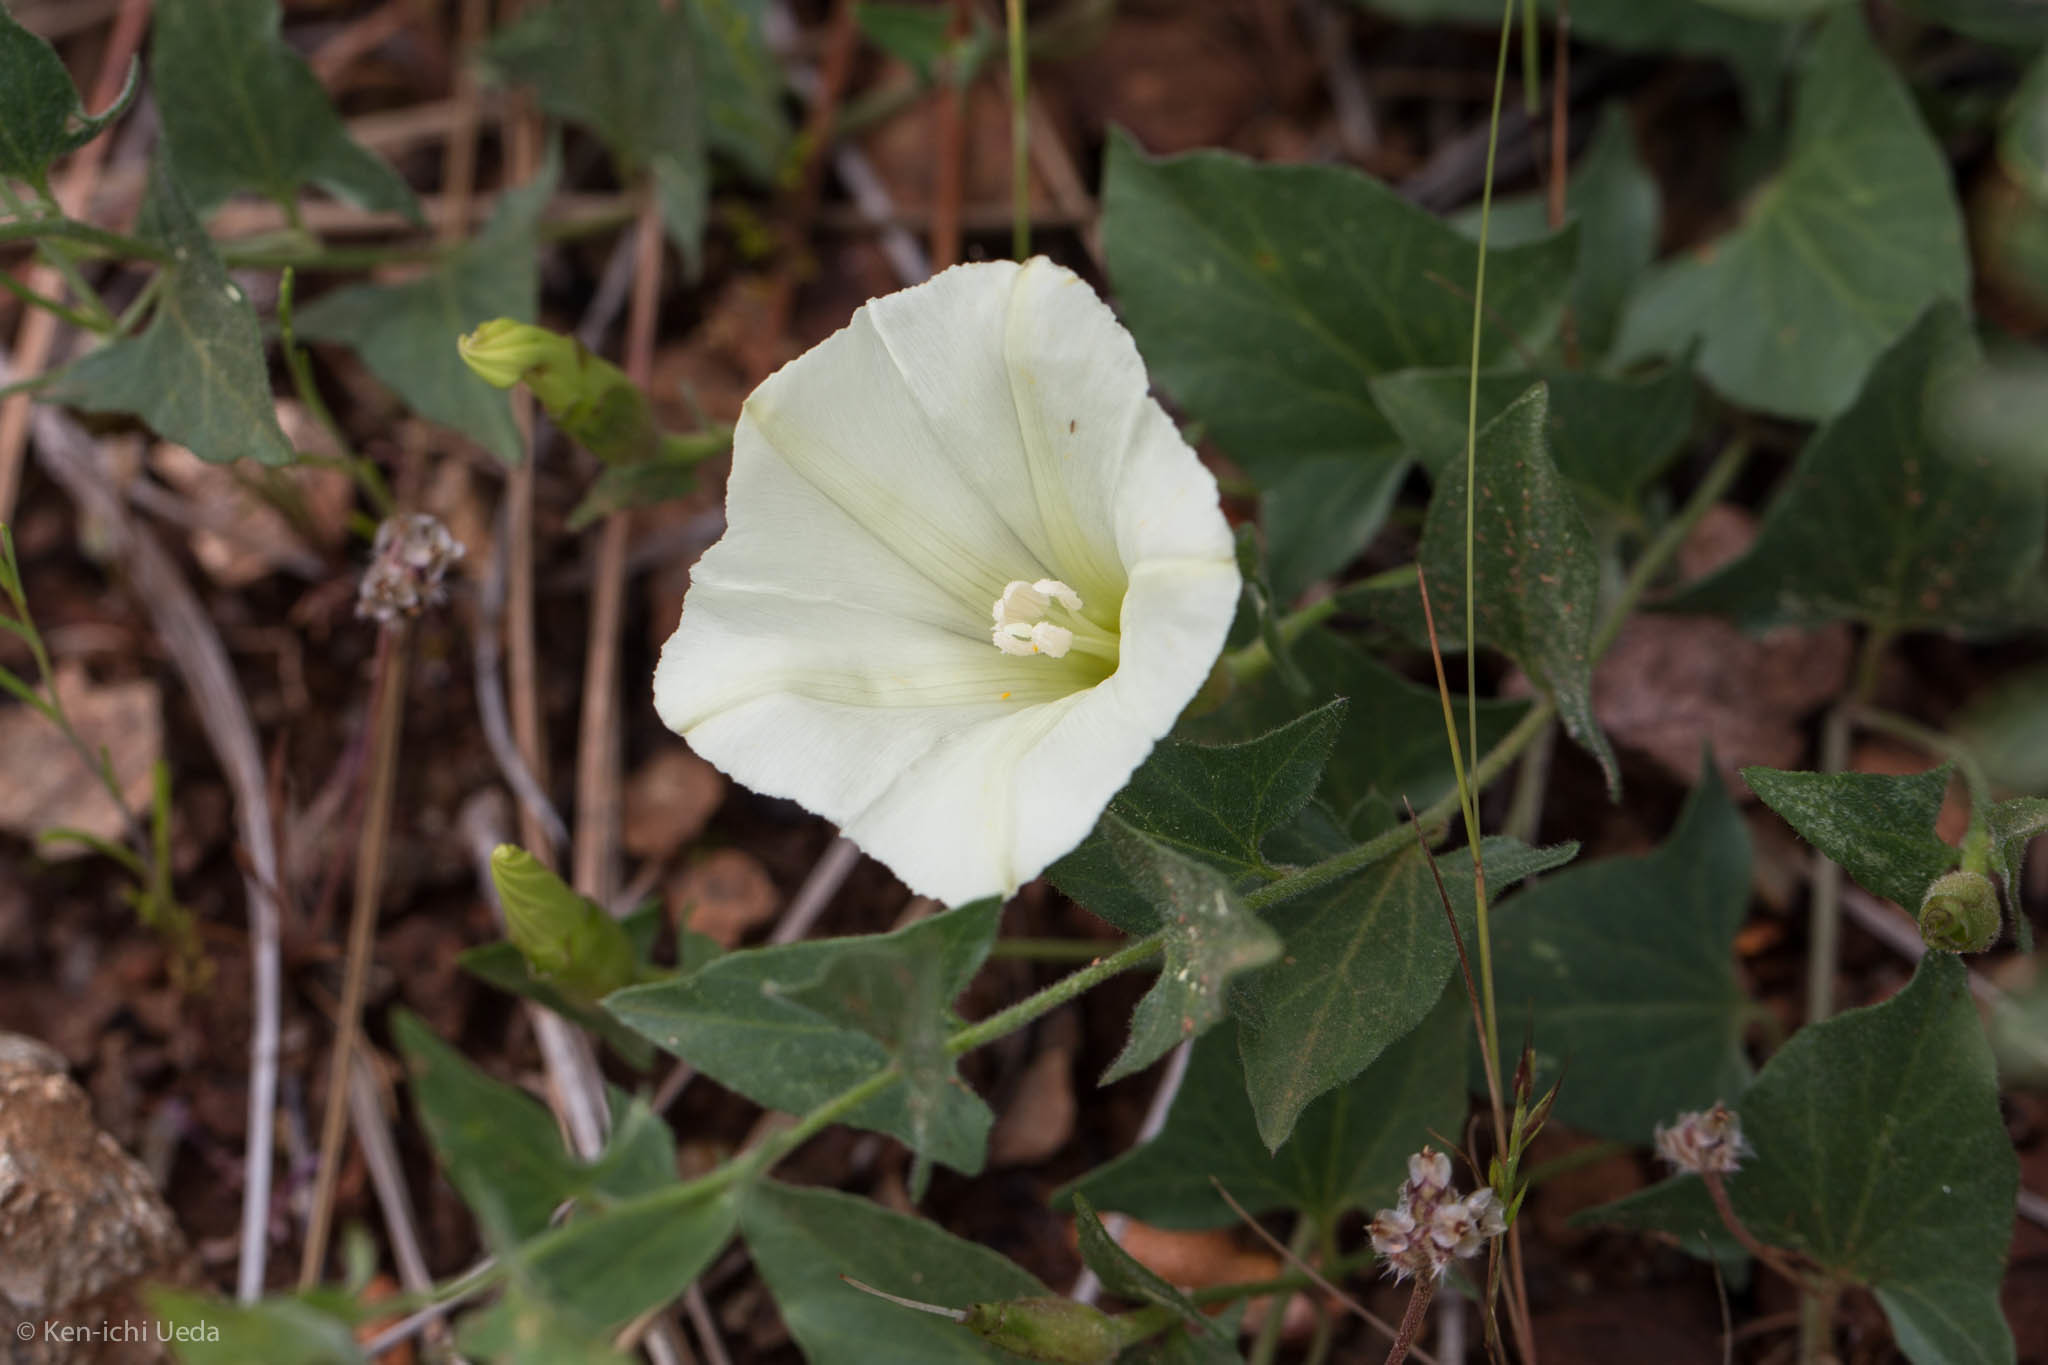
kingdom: Plantae
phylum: Tracheophyta
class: Magnoliopsida
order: Solanales
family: Convolvulaceae
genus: Calystegia
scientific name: Calystegia occidentalis
